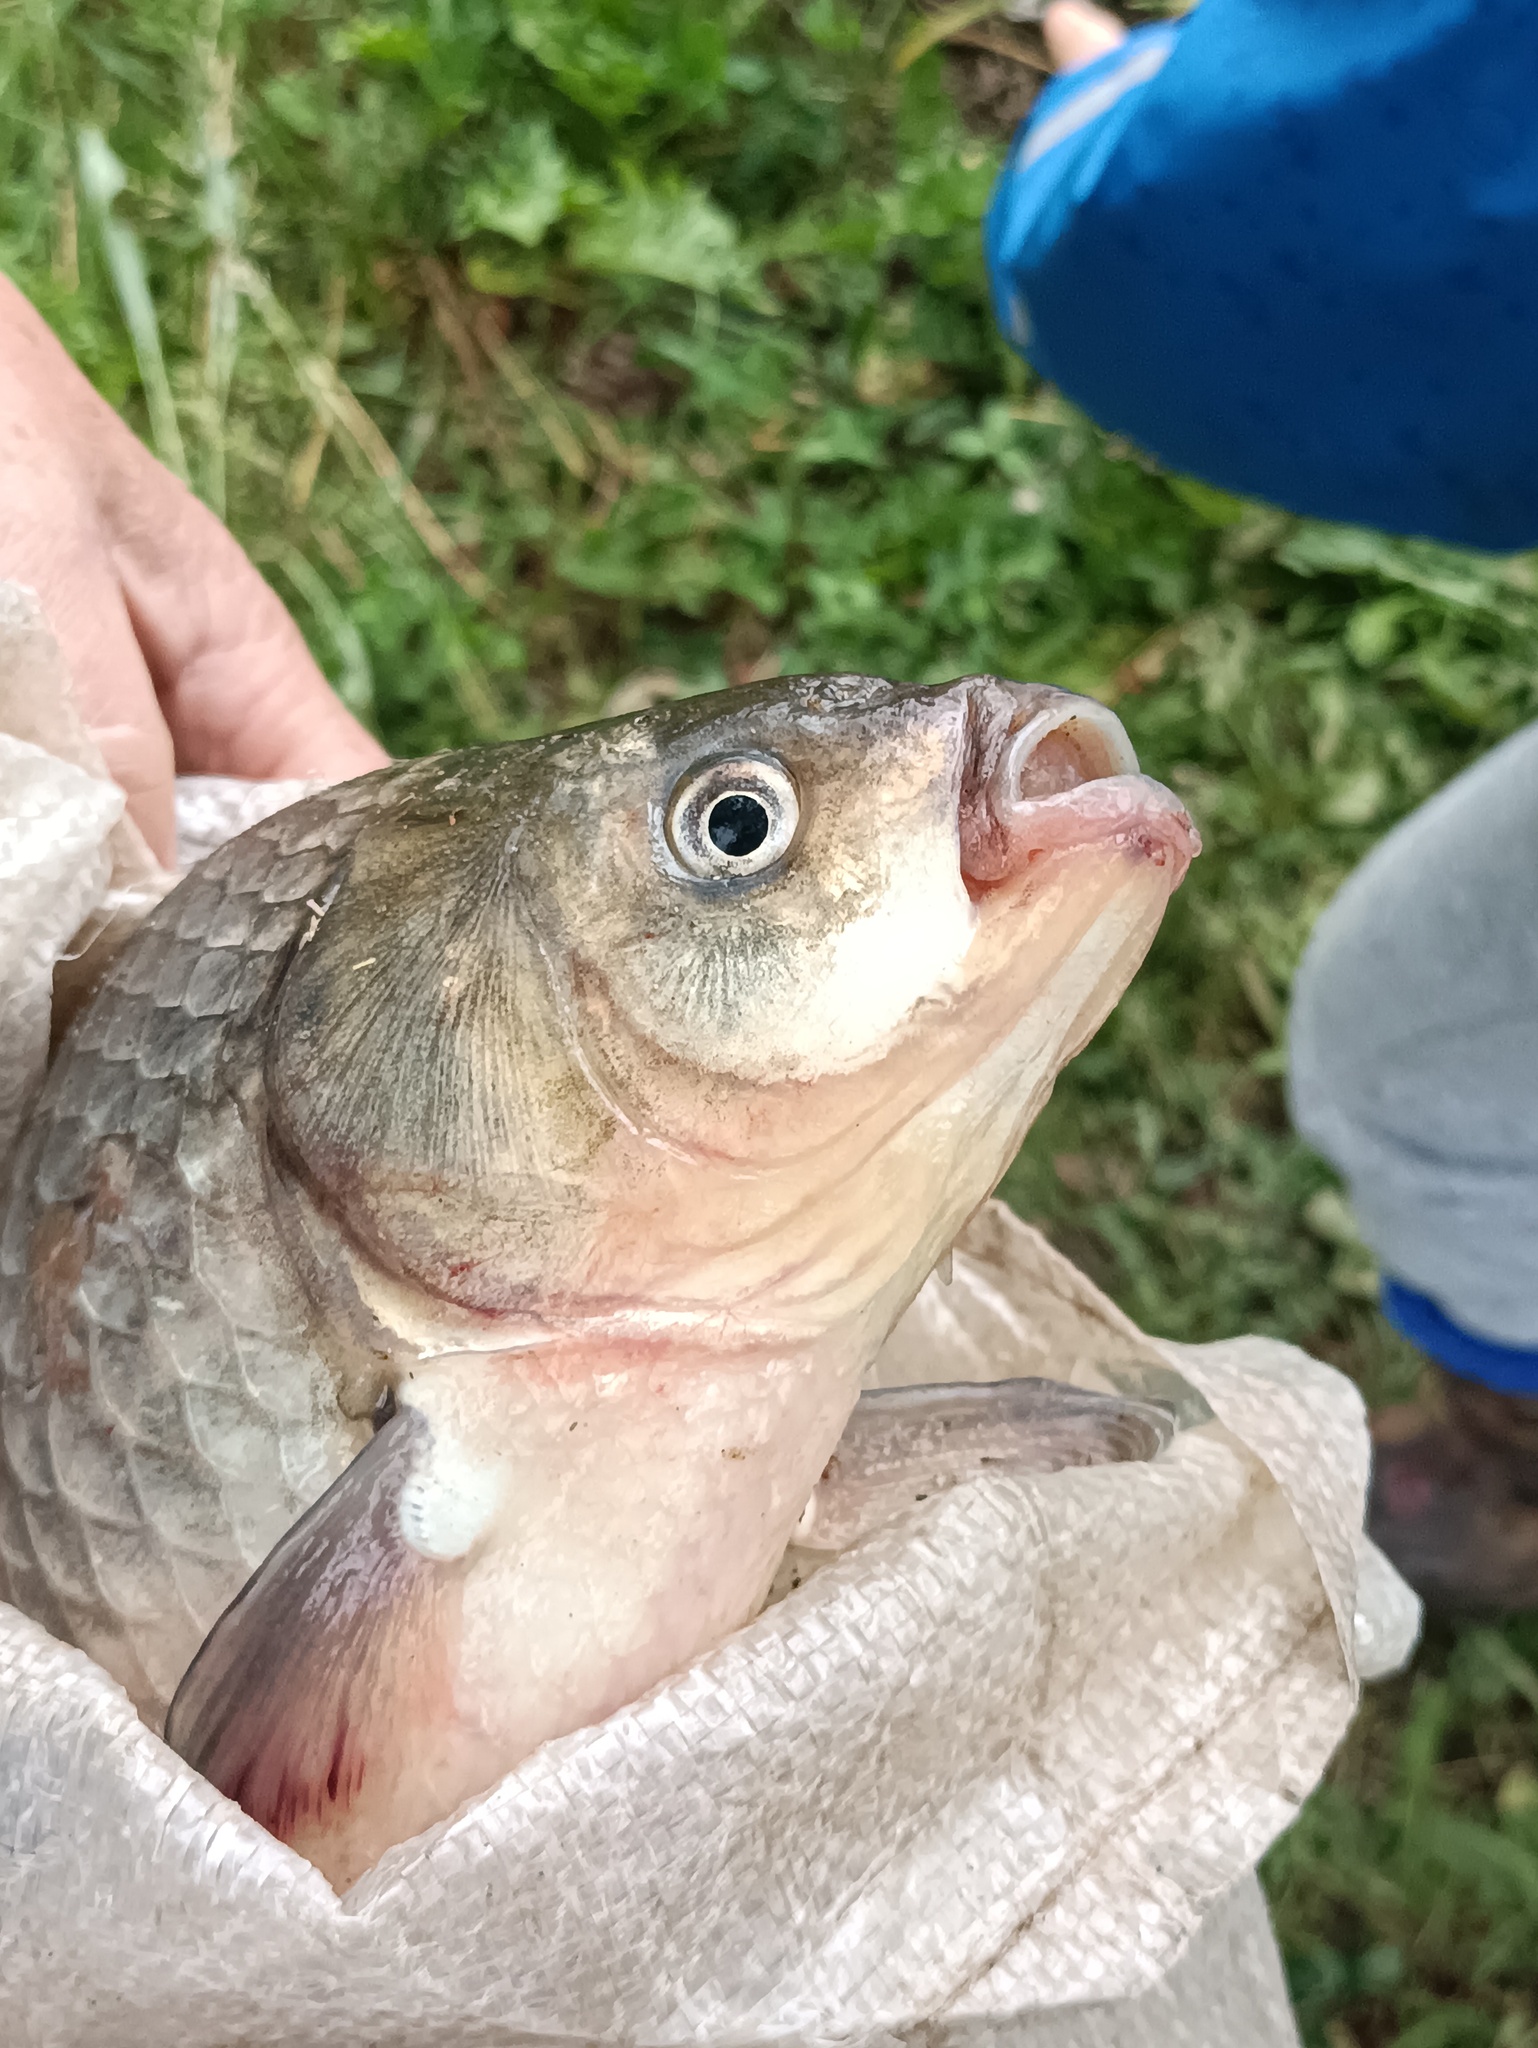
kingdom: Animalia
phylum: Chordata
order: Cypriniformes
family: Cyprinidae
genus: Carassius
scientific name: Carassius gibelio
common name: Prussian carp
